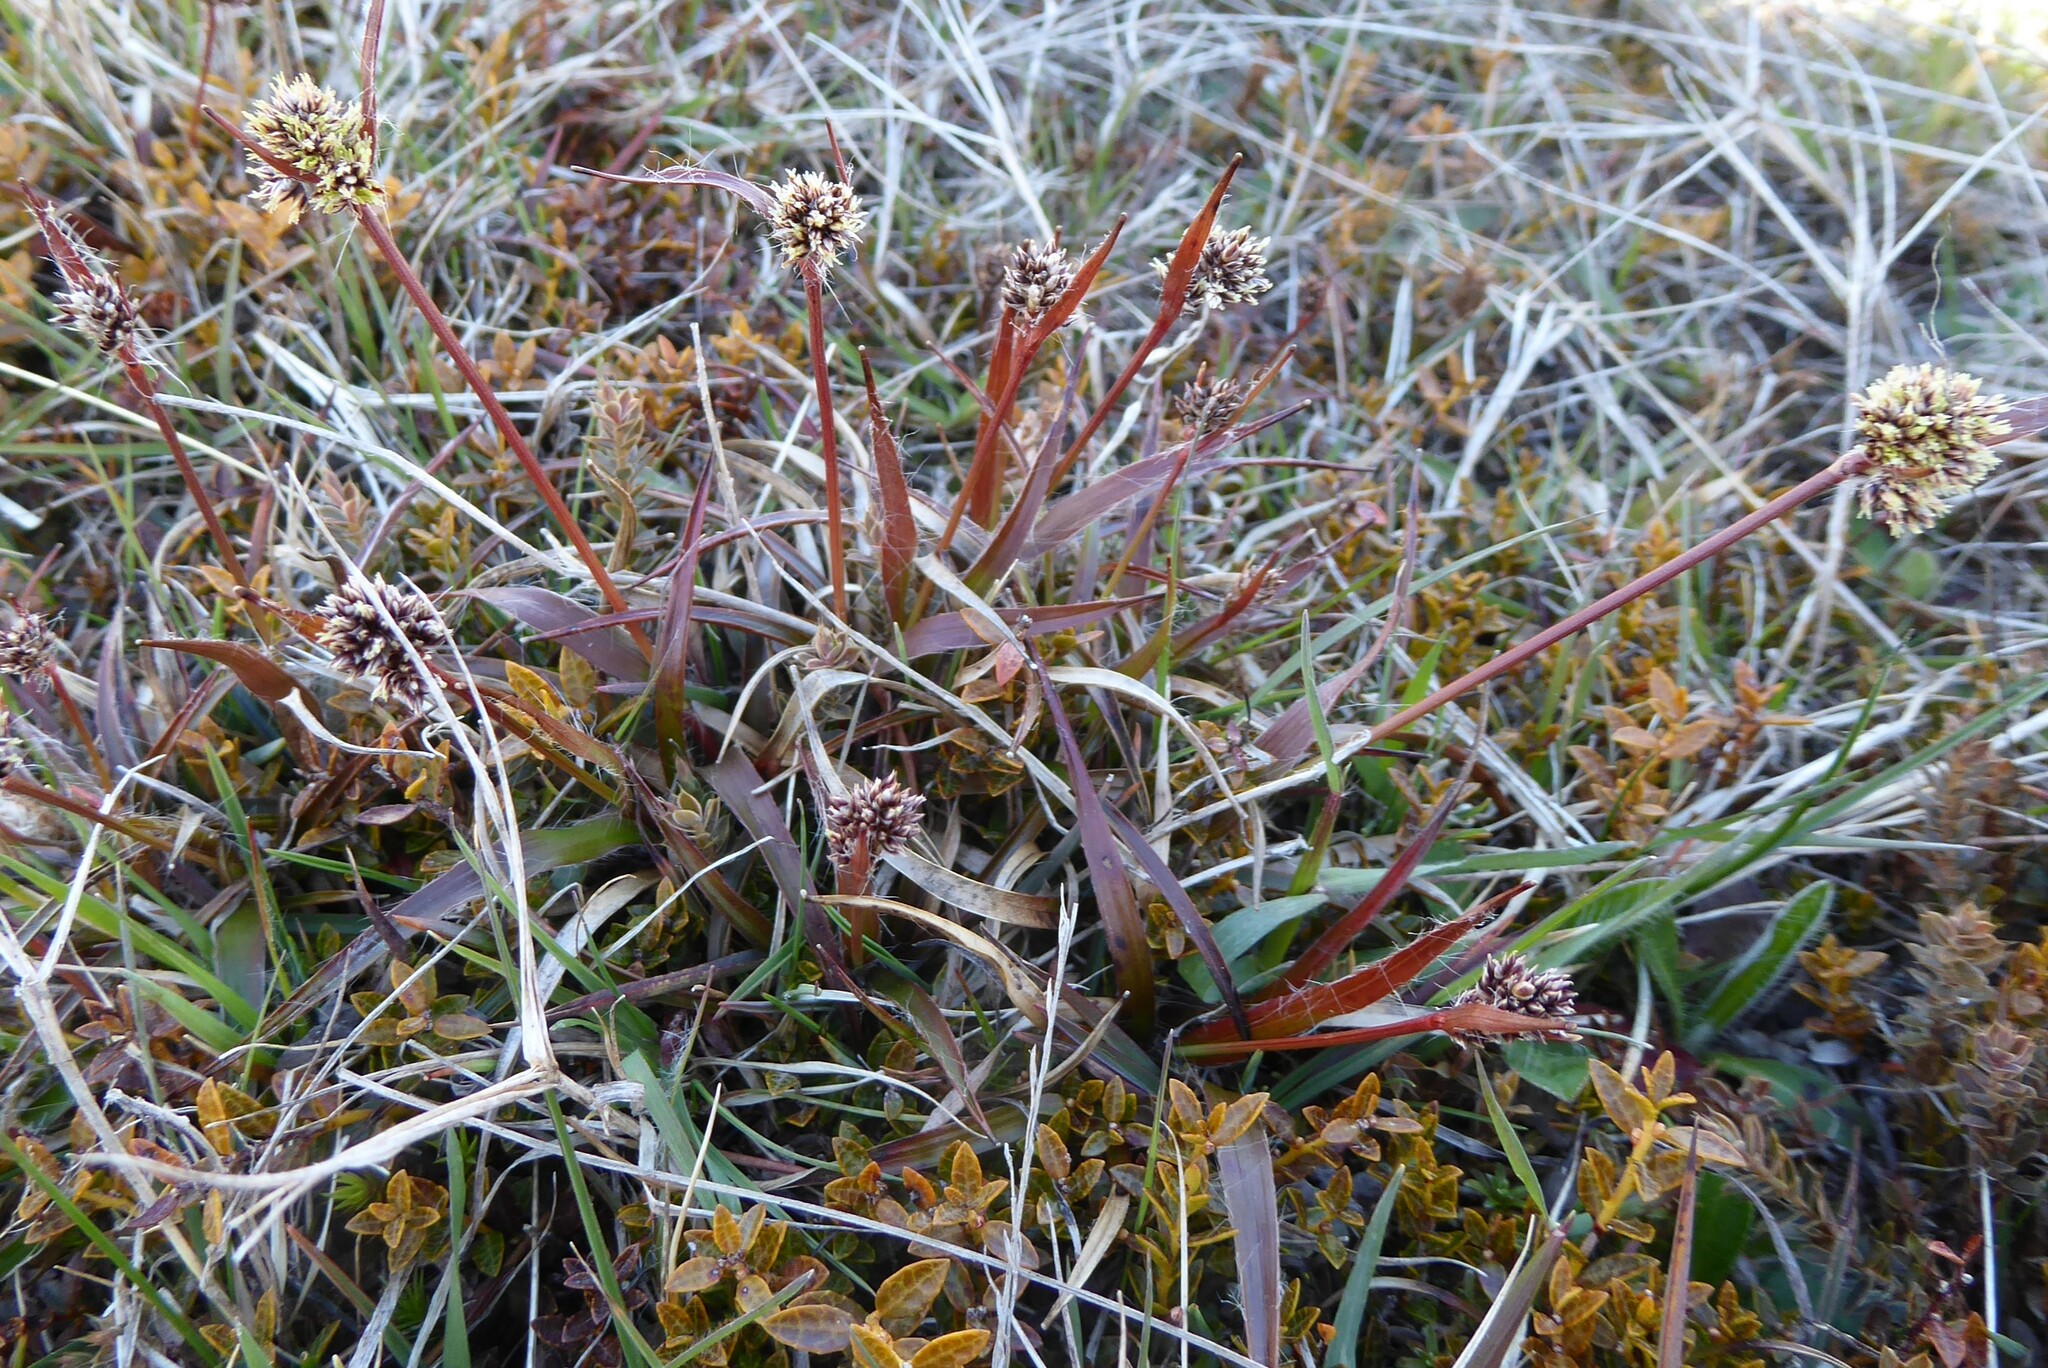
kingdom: Plantae
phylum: Tracheophyta
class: Liliopsida
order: Poales
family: Juncaceae
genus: Luzula
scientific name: Luzula rufa
